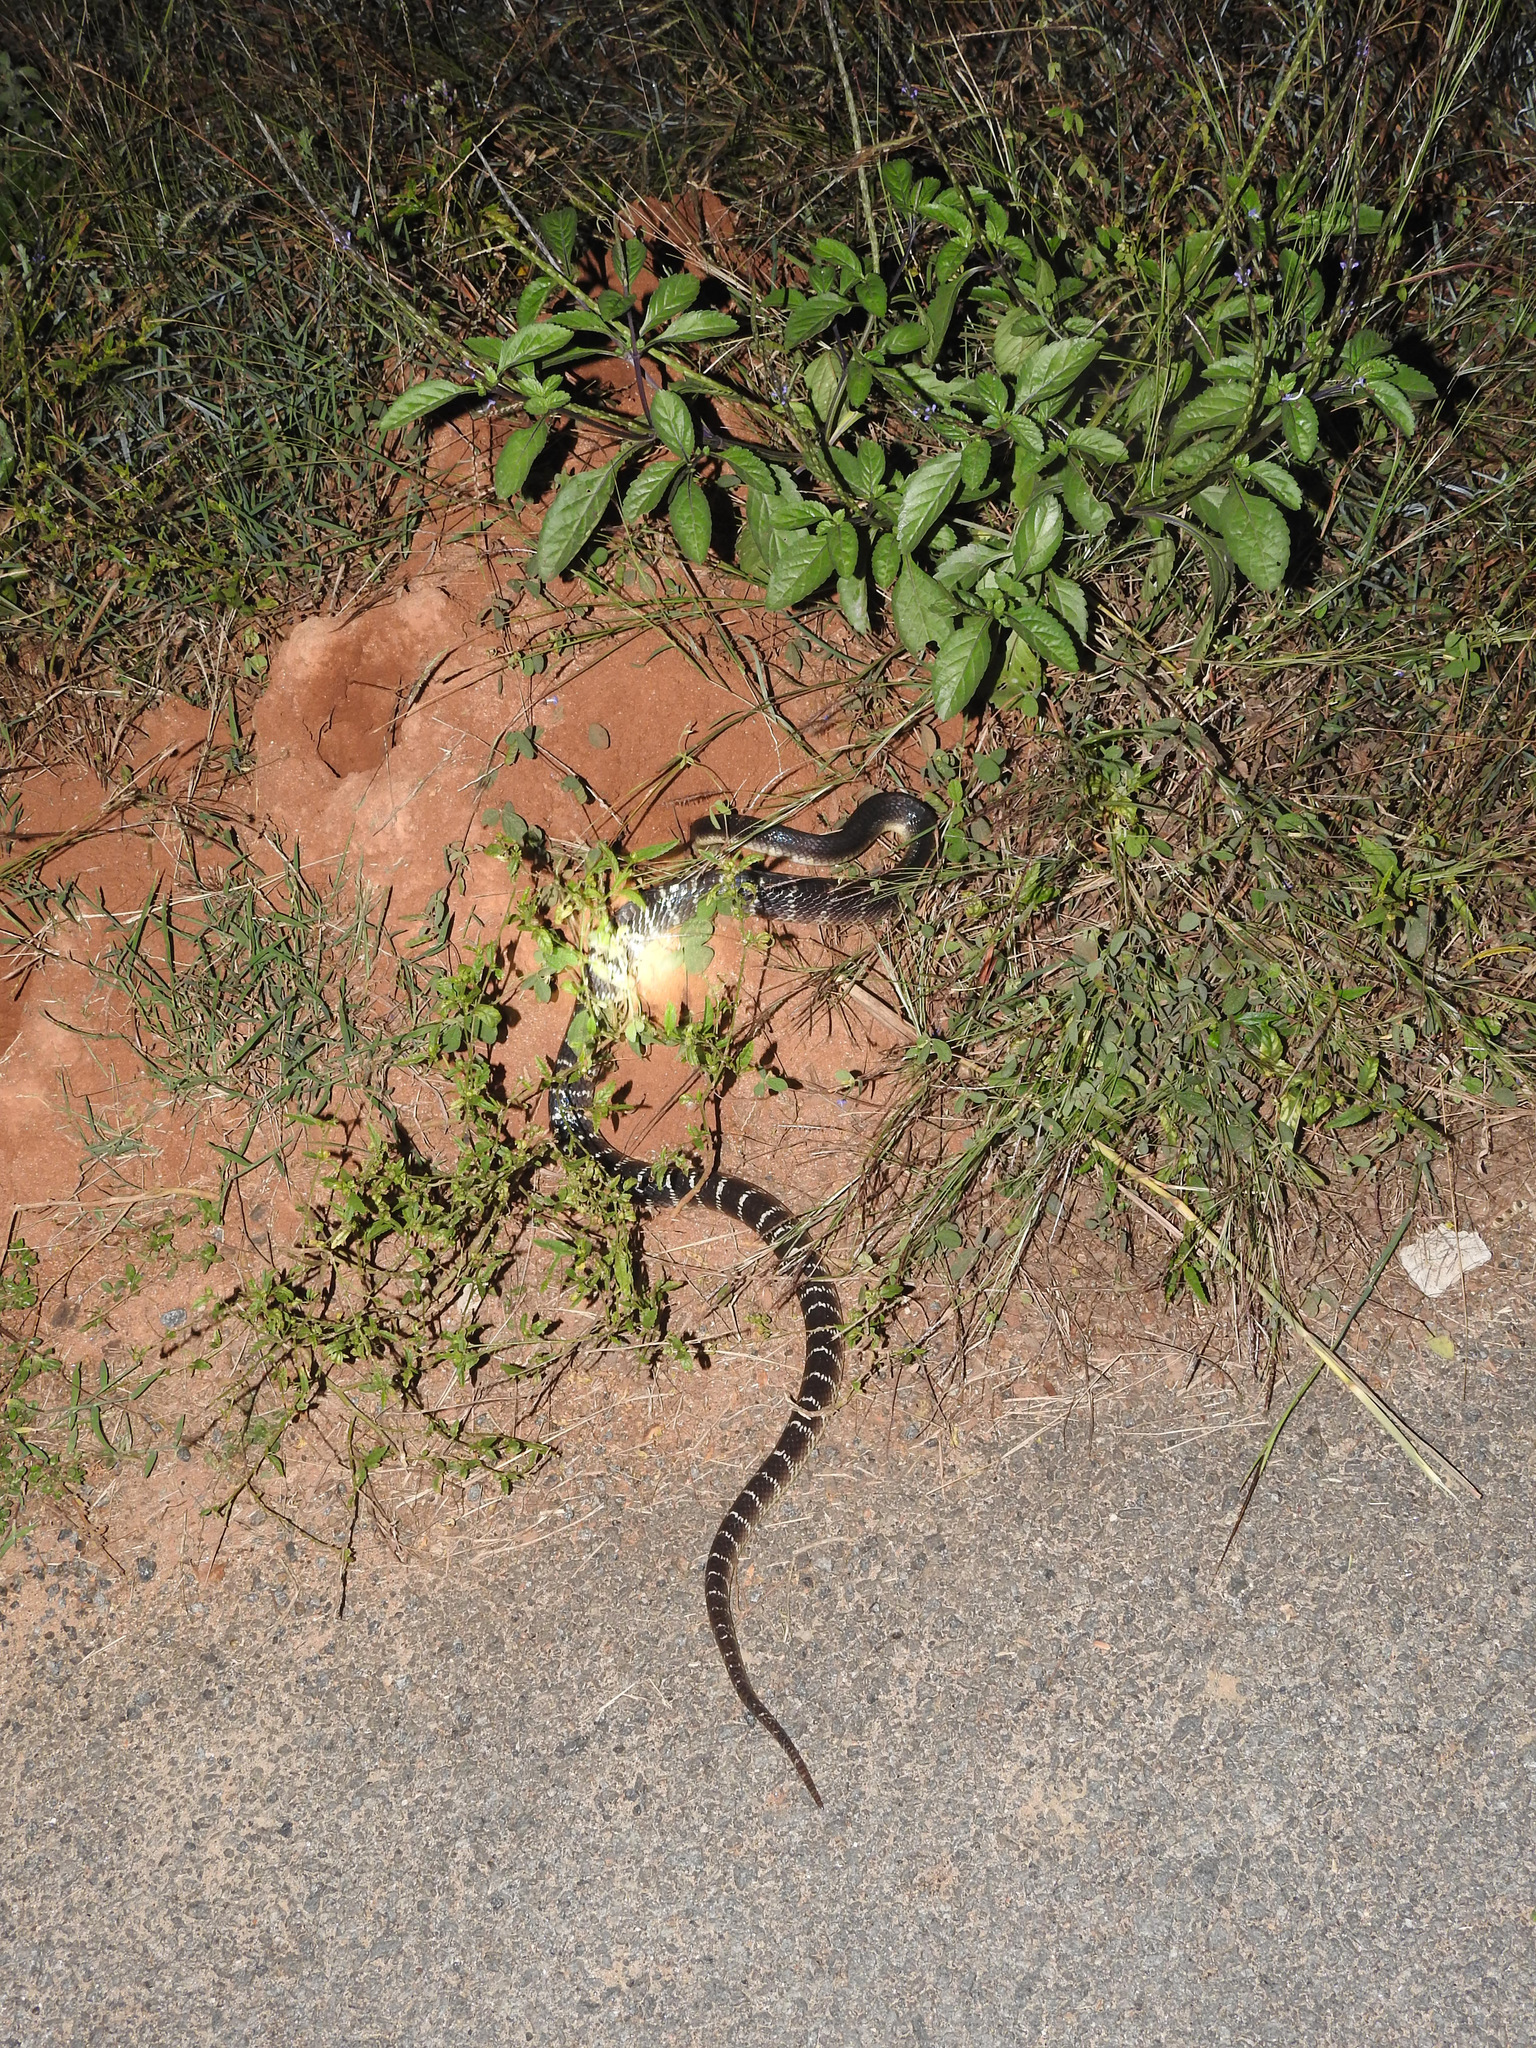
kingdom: Animalia
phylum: Chordata
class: Squamata
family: Elapidae
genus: Bungarus
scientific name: Bungarus caeruleus
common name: Common krait
